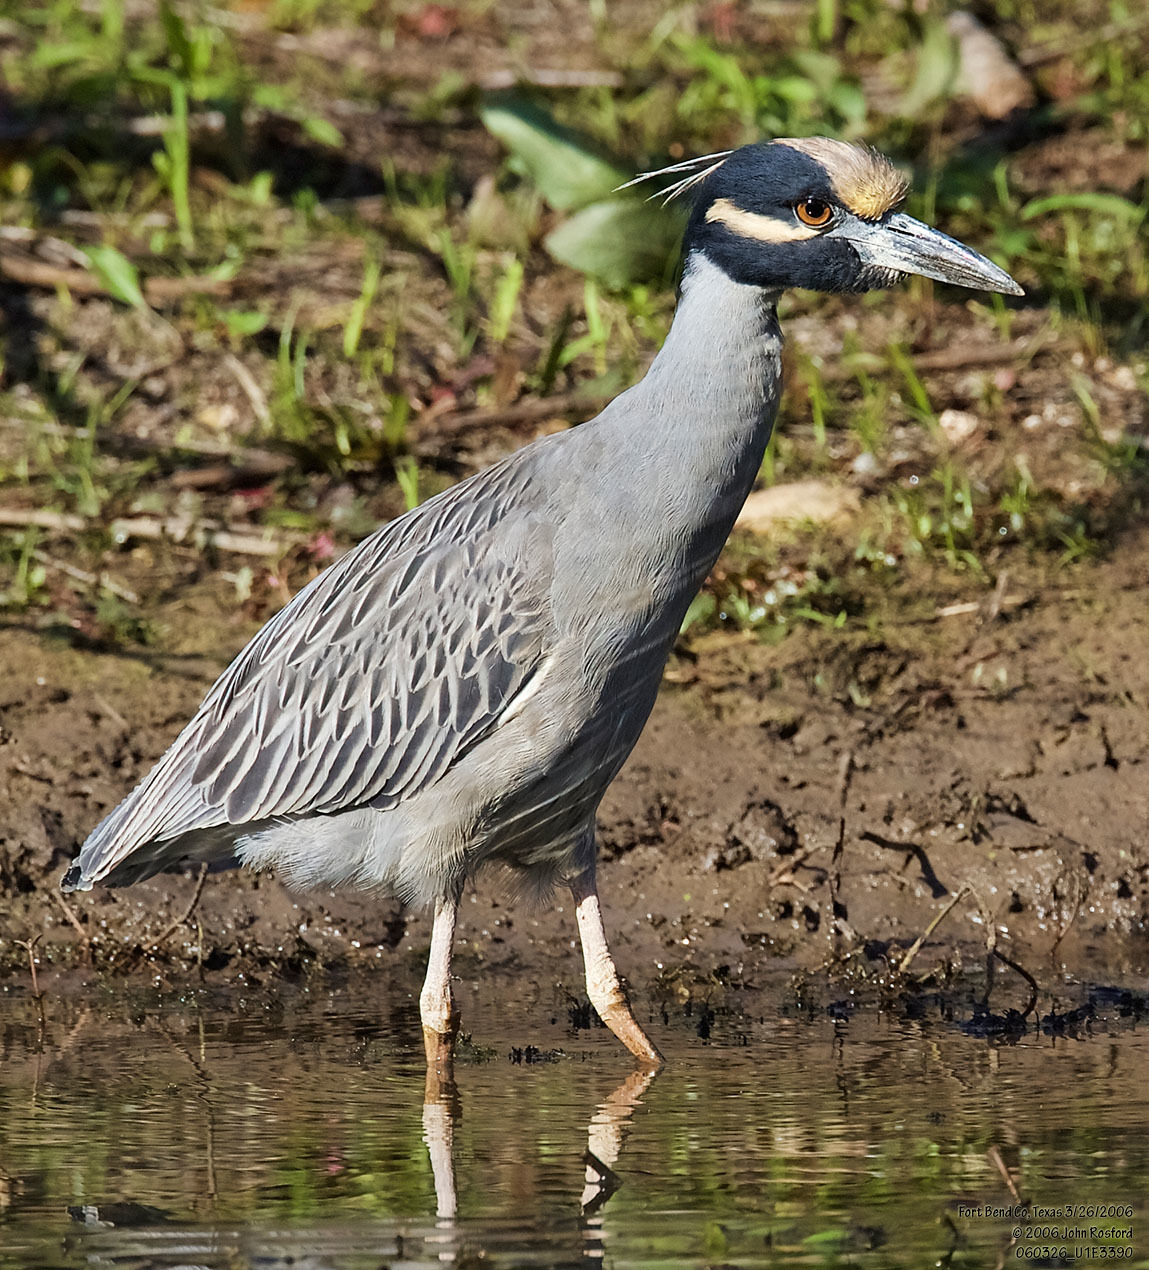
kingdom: Animalia
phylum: Chordata
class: Aves
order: Pelecaniformes
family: Ardeidae
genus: Nyctanassa
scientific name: Nyctanassa violacea
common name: Yellow-crowned night heron
